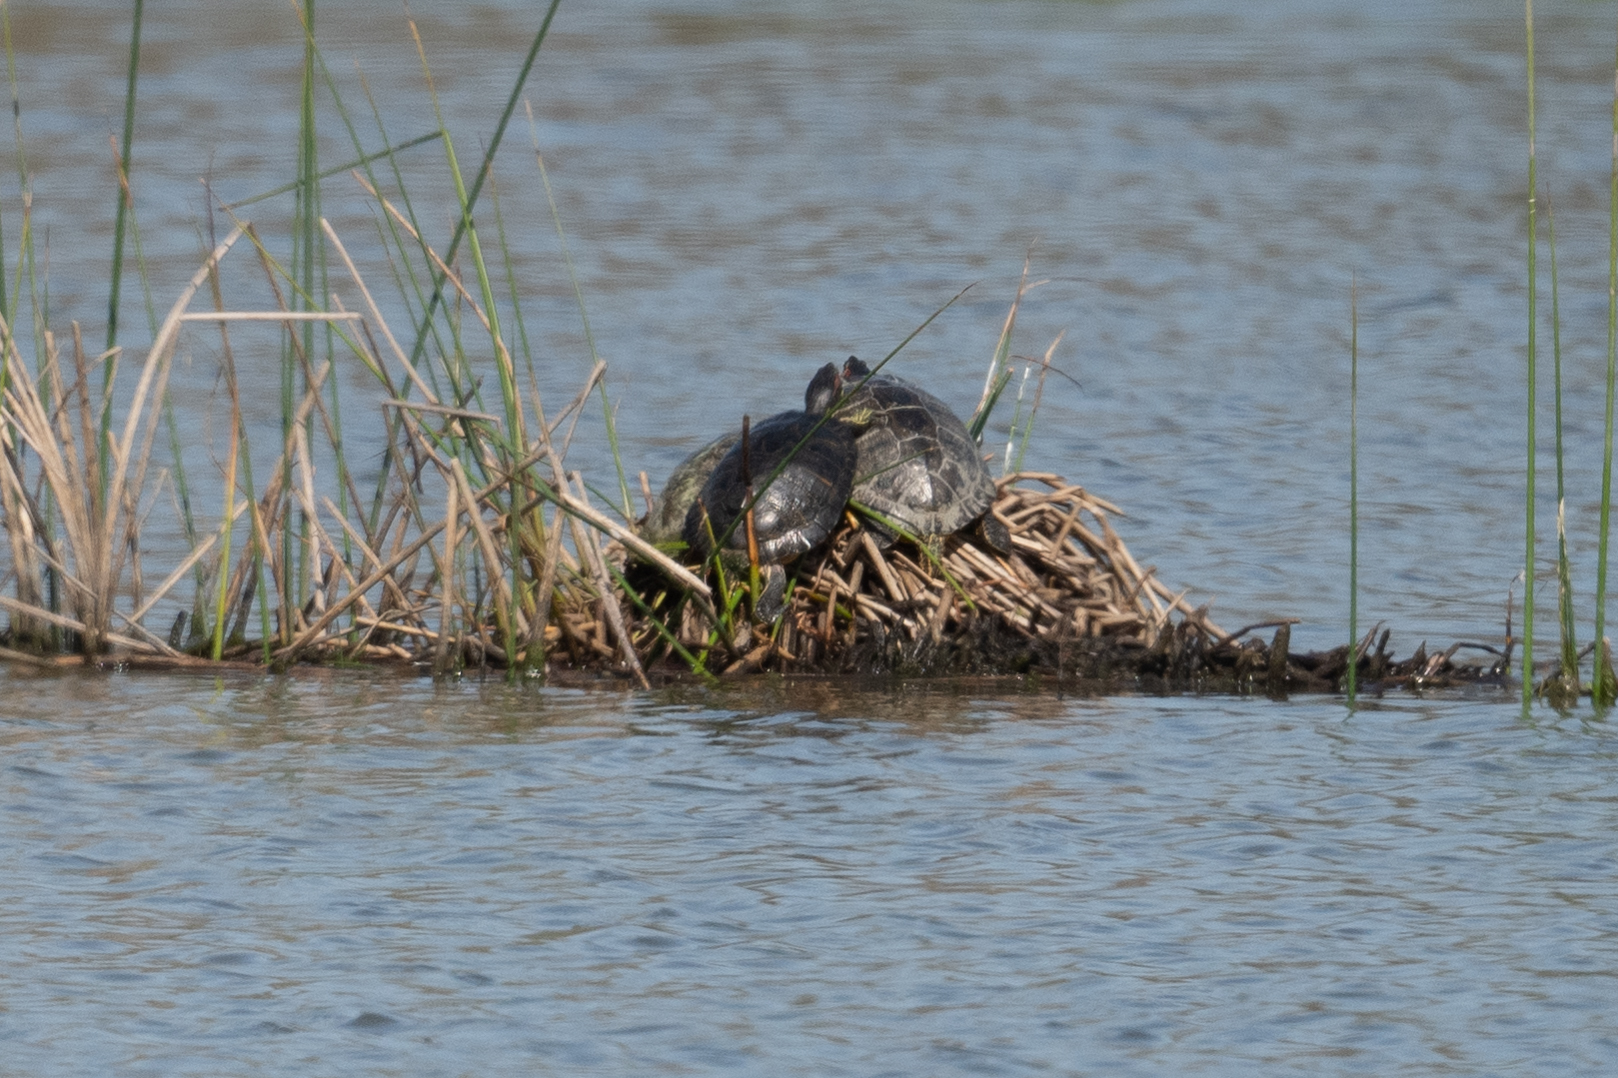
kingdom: Animalia
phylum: Chordata
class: Testudines
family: Emydidae
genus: Trachemys
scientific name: Trachemys scripta
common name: Slider
